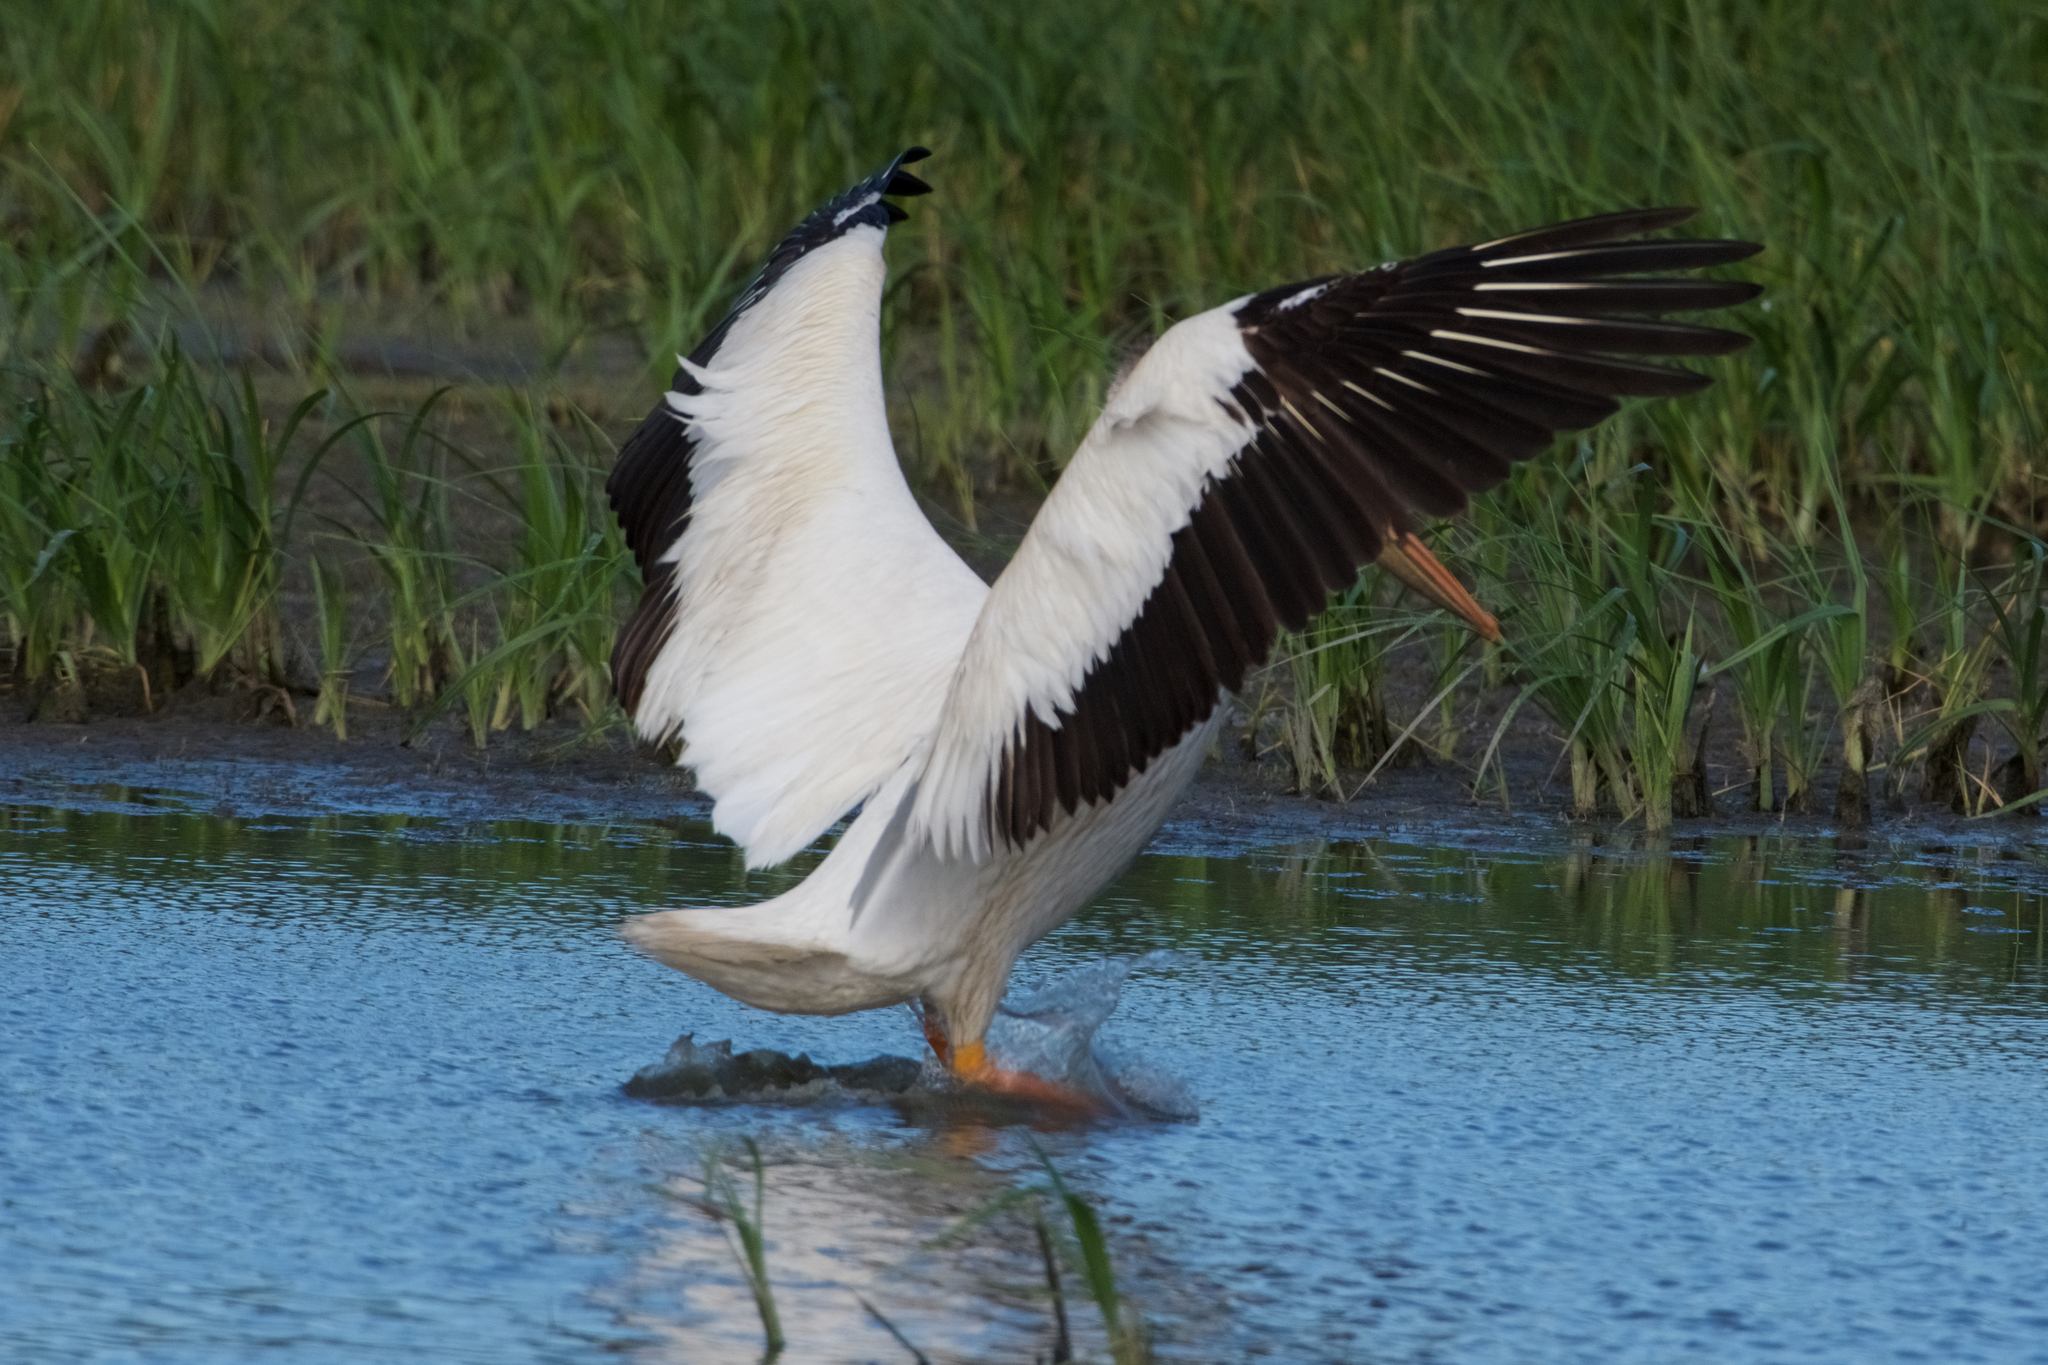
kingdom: Animalia
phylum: Chordata
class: Aves
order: Pelecaniformes
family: Pelecanidae
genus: Pelecanus
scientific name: Pelecanus erythrorhynchos
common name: American white pelican
